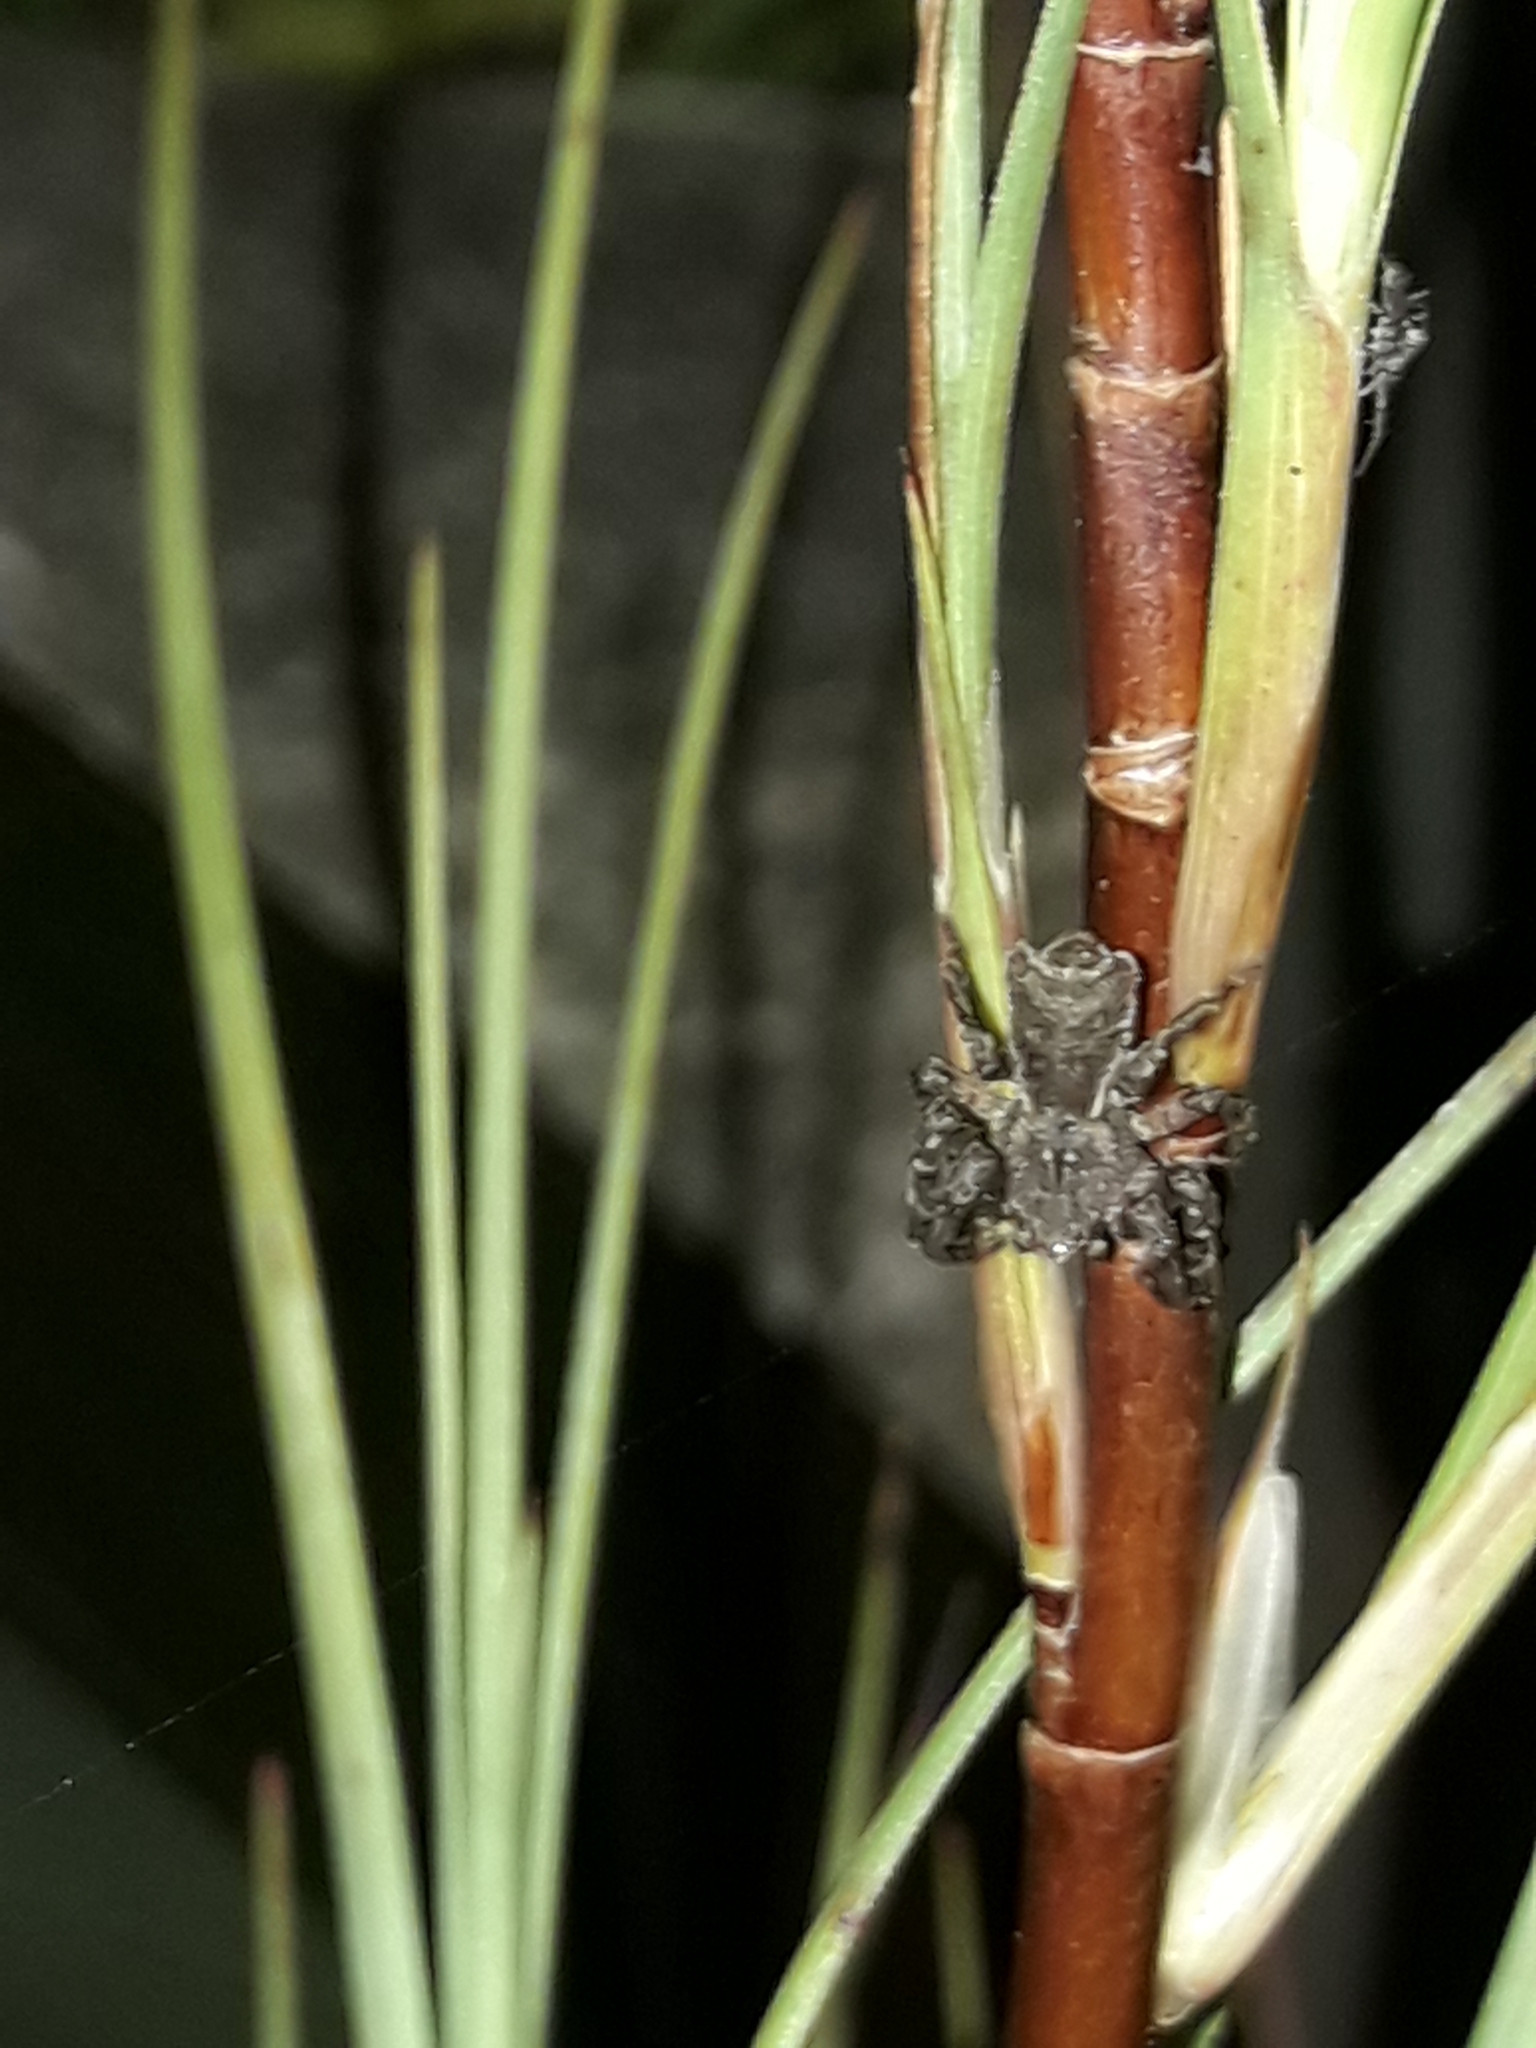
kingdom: Animalia
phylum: Arthropoda
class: Arachnida
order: Araneae
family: Thomisidae
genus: Sidymella
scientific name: Sidymella angularis
